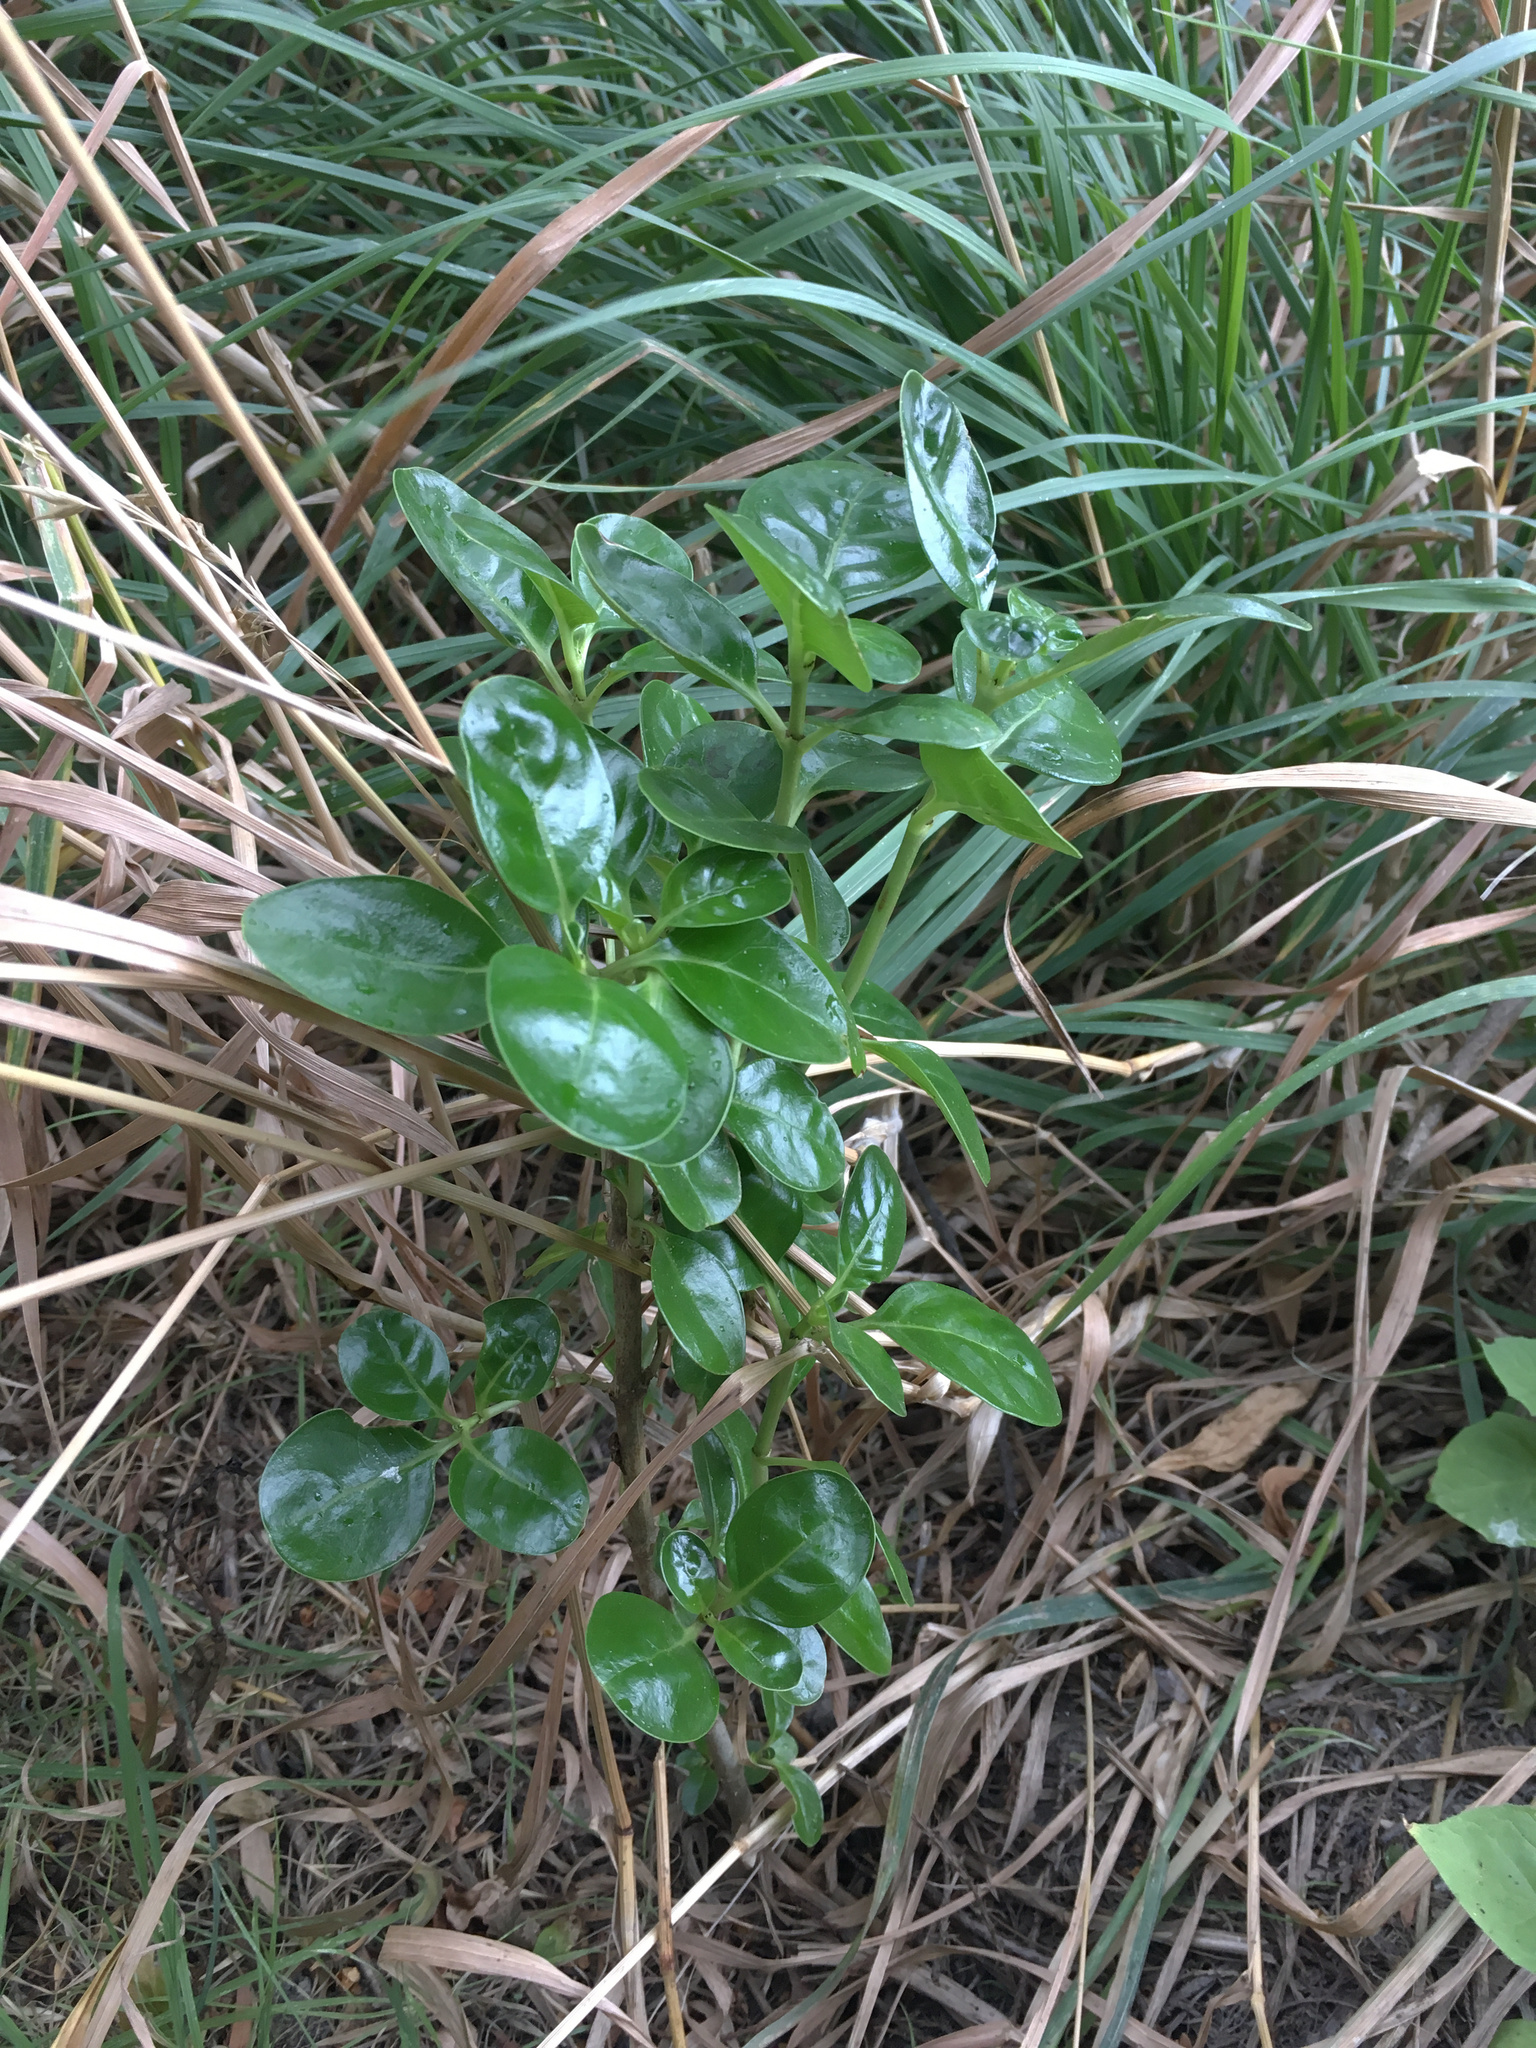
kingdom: Plantae
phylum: Tracheophyta
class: Magnoliopsida
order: Gentianales
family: Rubiaceae
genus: Coprosma
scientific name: Coprosma repens
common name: Tree bedstraw
